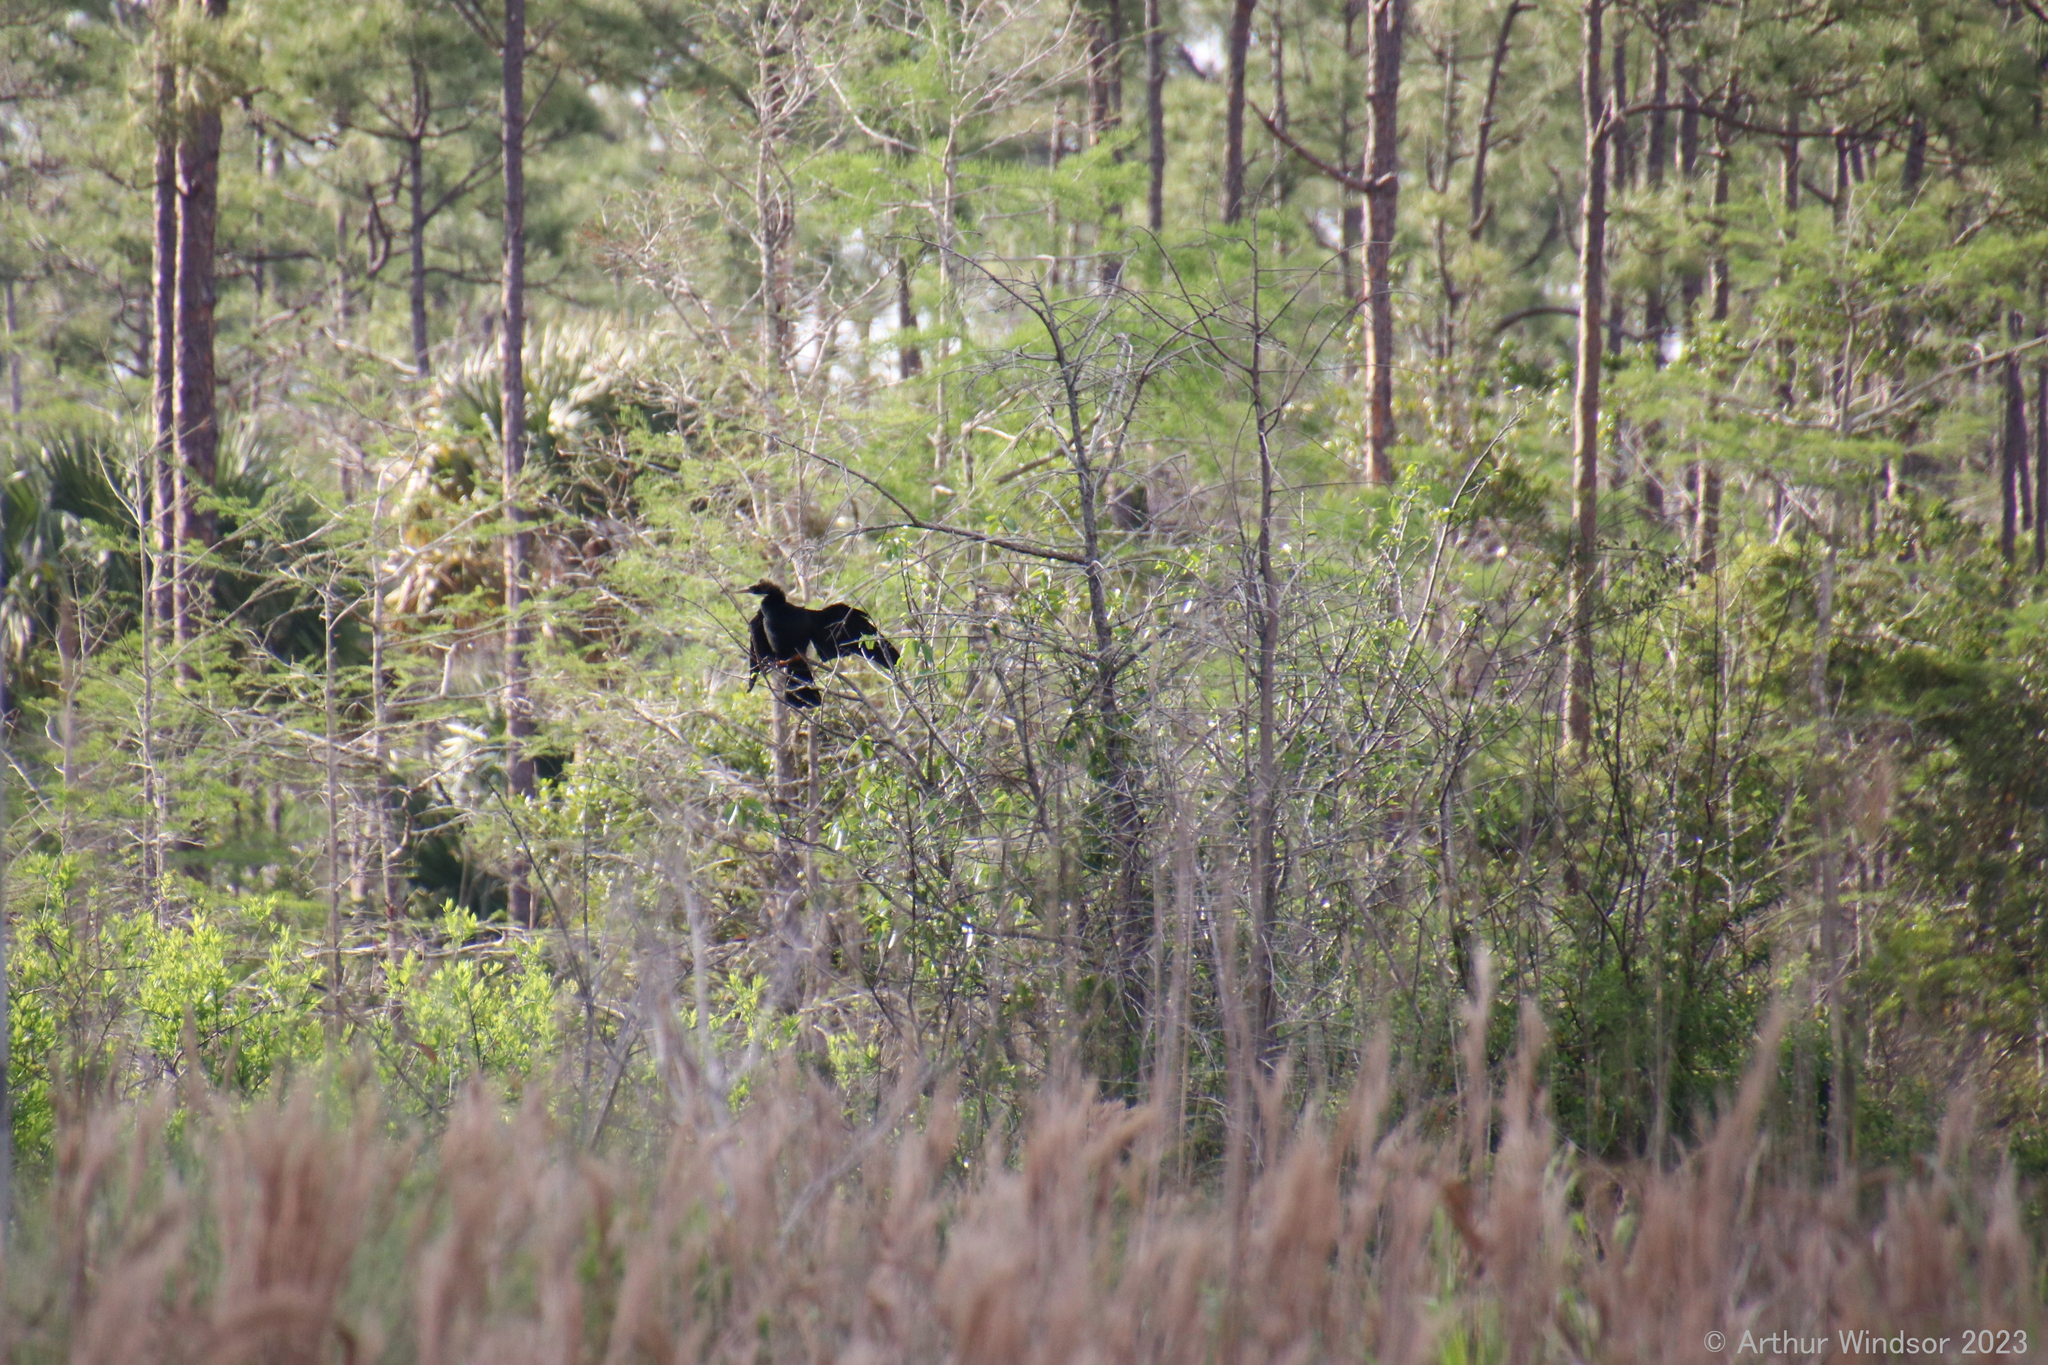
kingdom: Animalia
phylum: Chordata
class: Aves
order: Suliformes
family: Anhingidae
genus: Anhinga
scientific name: Anhinga anhinga
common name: Anhinga
